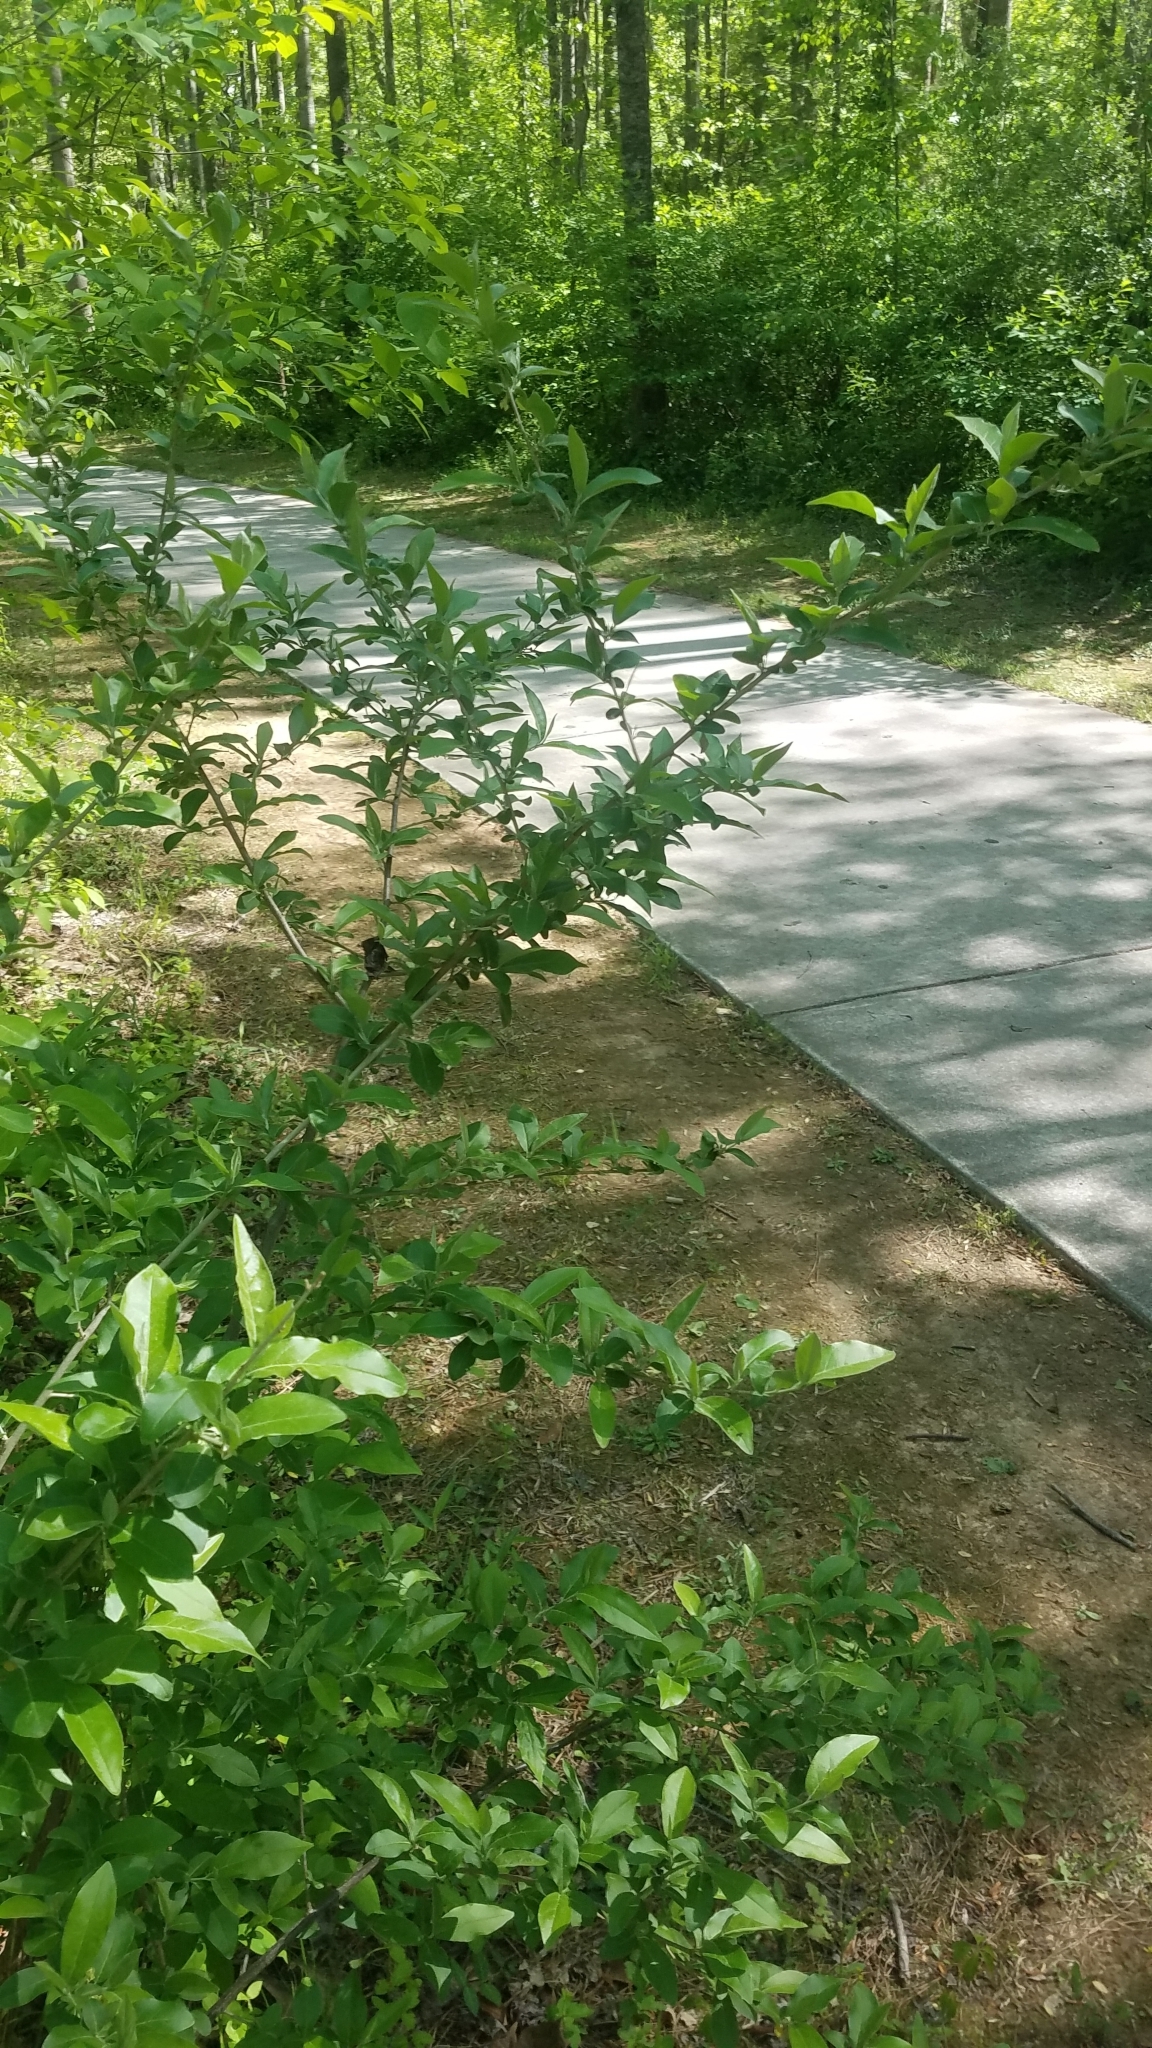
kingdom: Plantae
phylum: Tracheophyta
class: Magnoliopsida
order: Rosales
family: Elaeagnaceae
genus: Elaeagnus
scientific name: Elaeagnus umbellata
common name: Autumn olive
